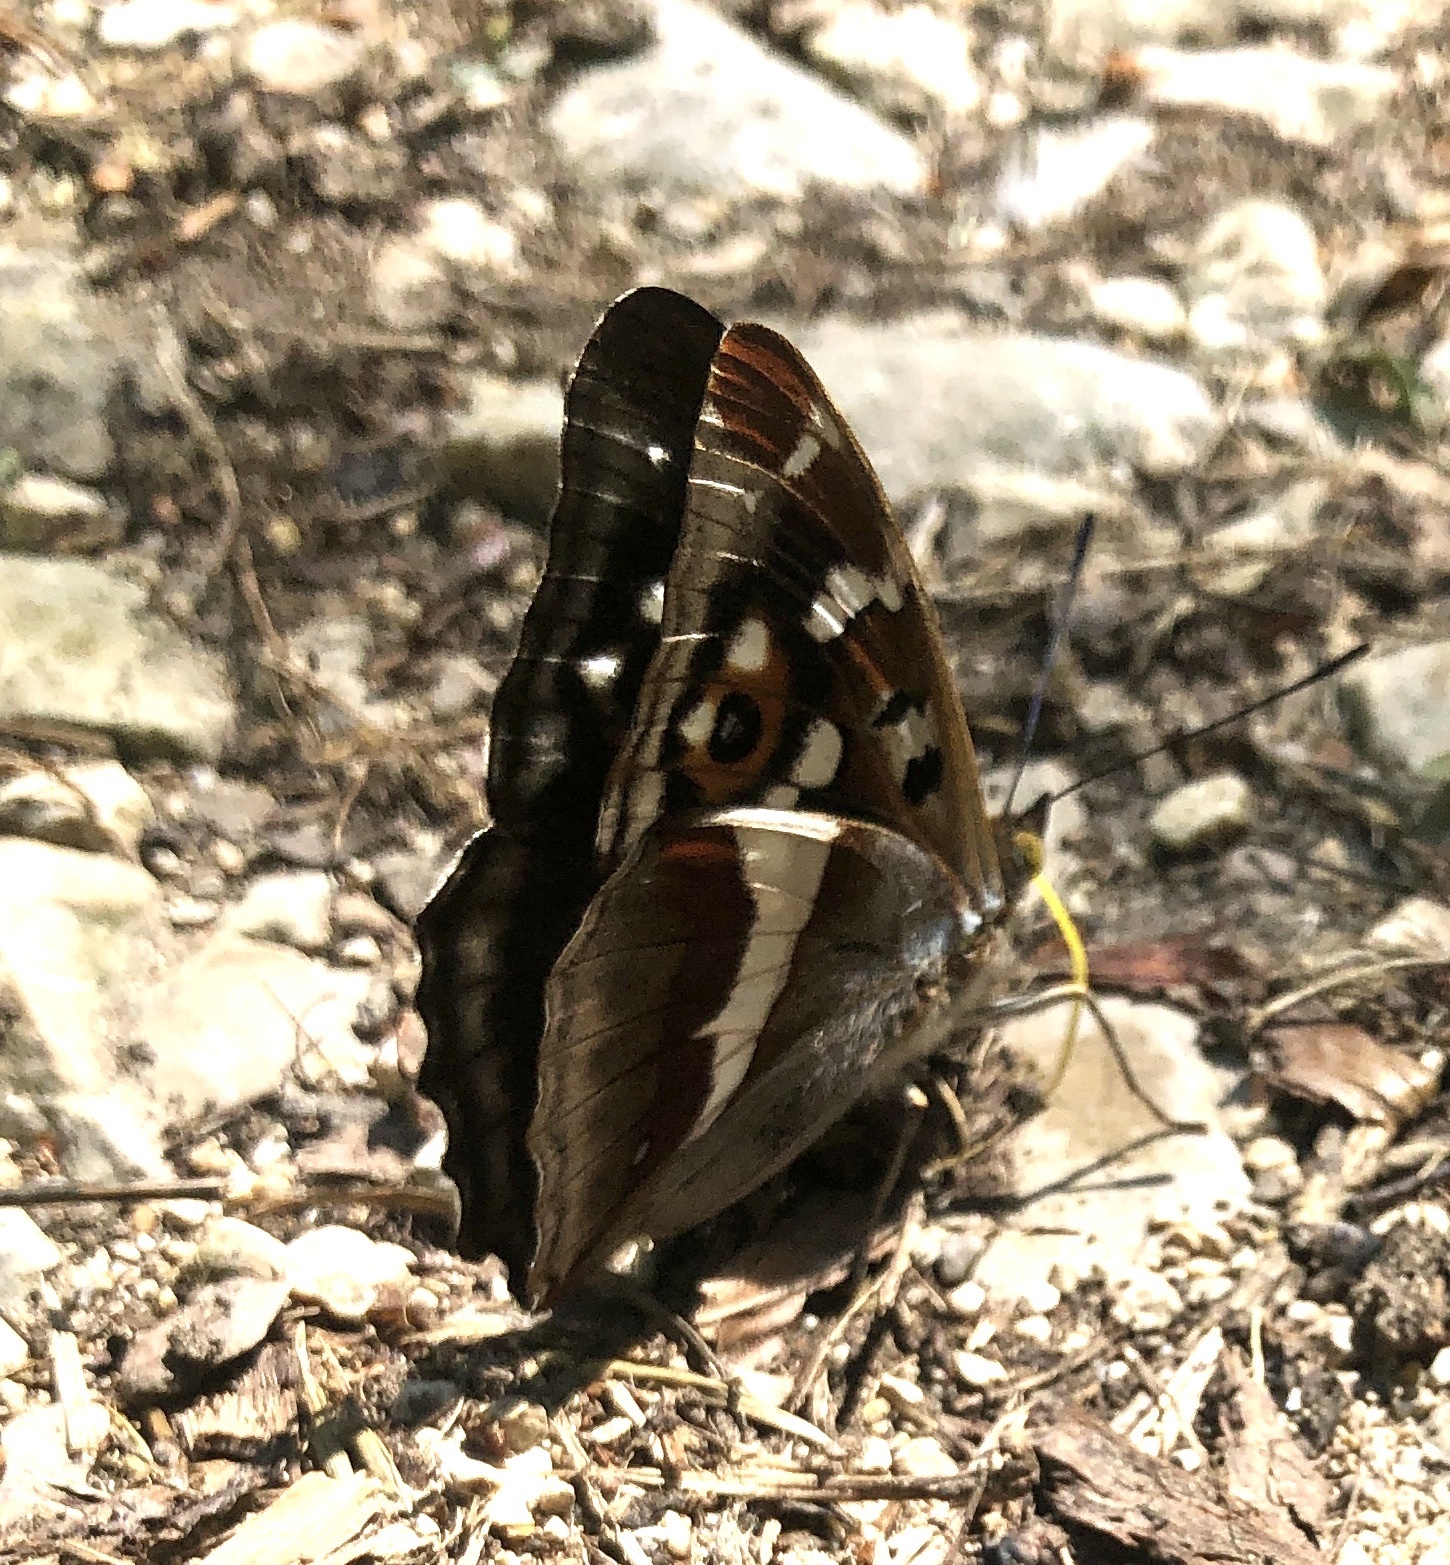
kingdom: Animalia
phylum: Arthropoda
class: Insecta
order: Lepidoptera
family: Nymphalidae
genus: Apatura
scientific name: Apatura iris
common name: Purple emperor
